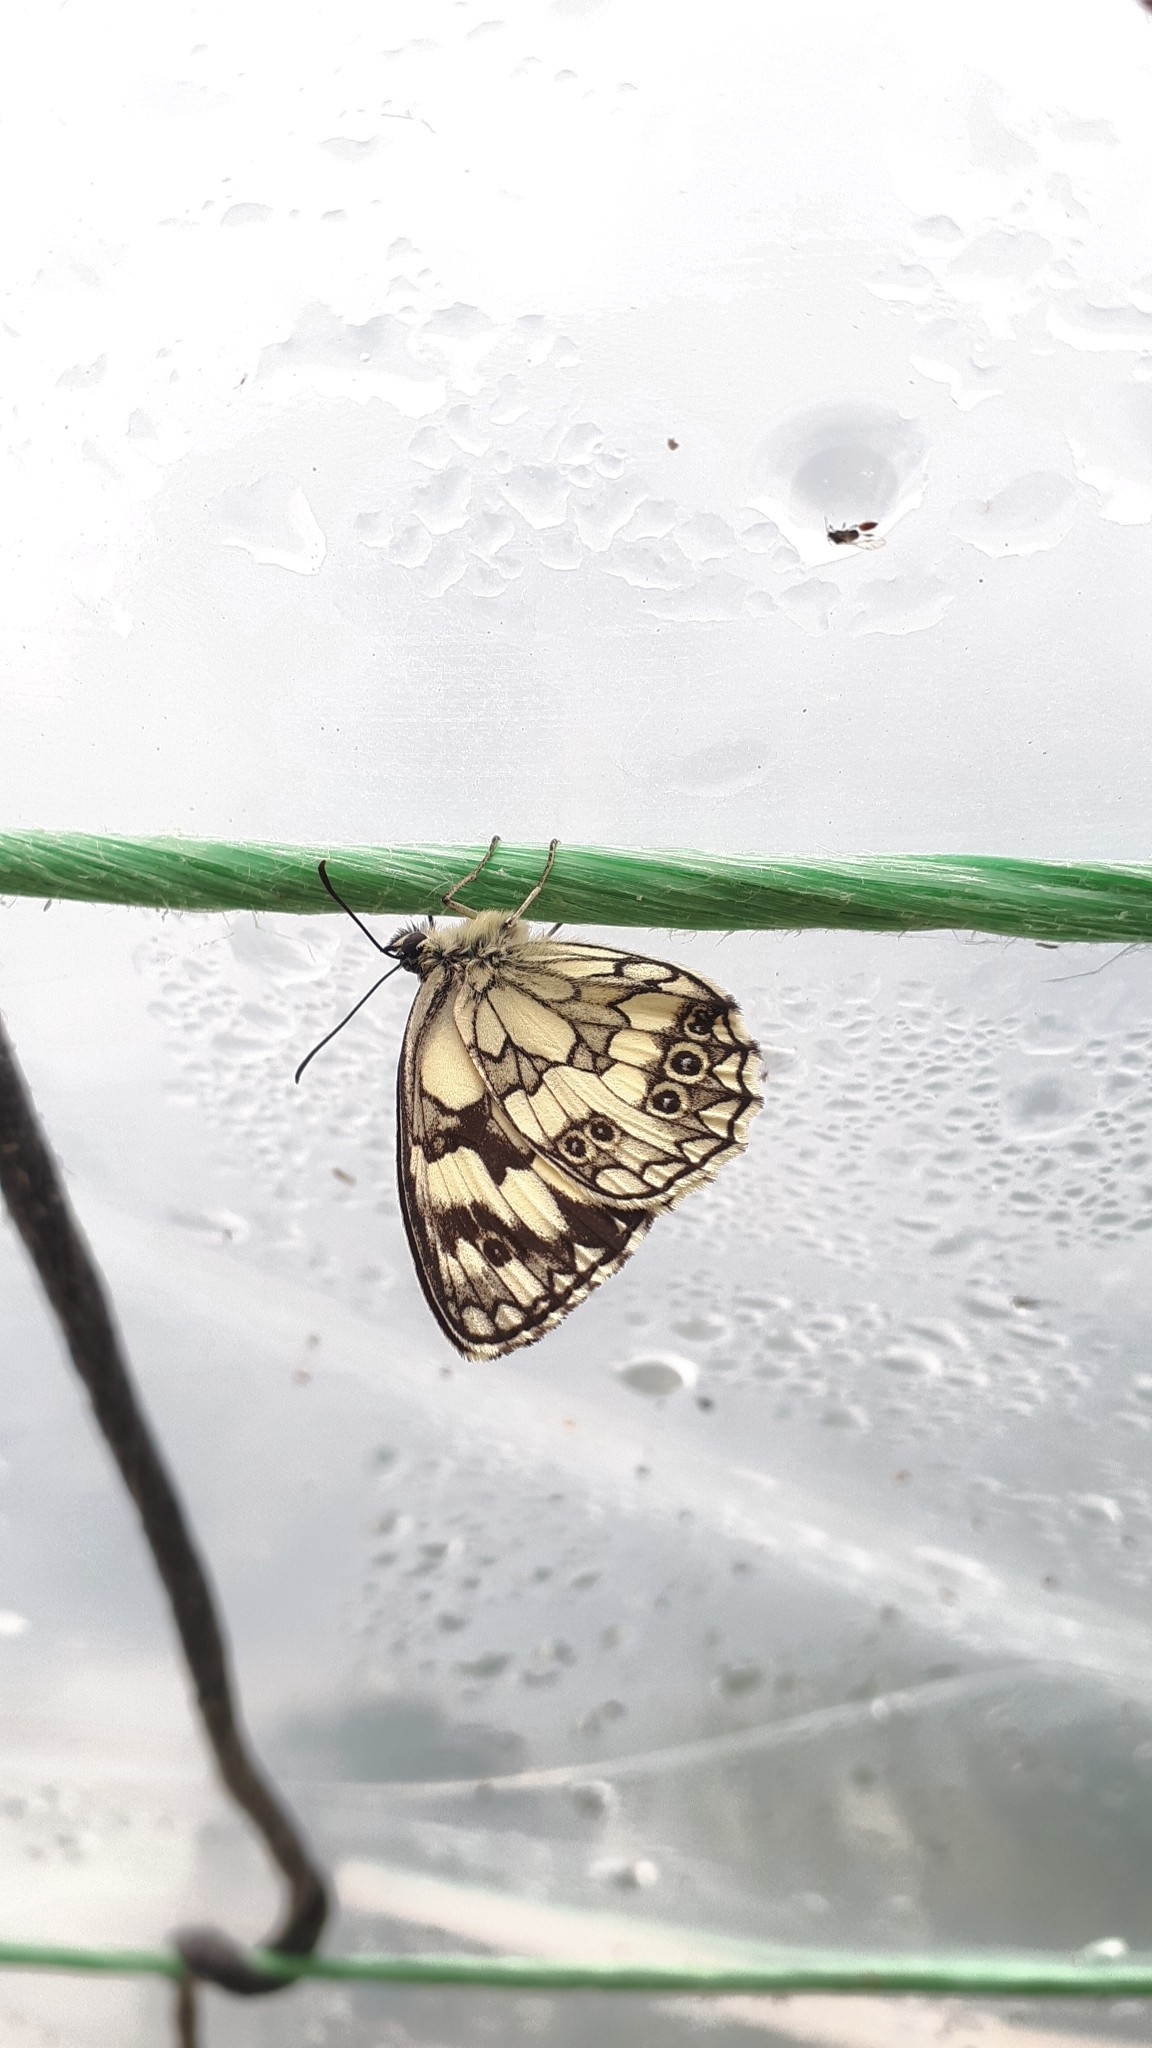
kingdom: Animalia
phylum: Arthropoda
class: Insecta
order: Lepidoptera
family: Nymphalidae
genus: Melanargia
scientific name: Melanargia galathea
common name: Marbled white
